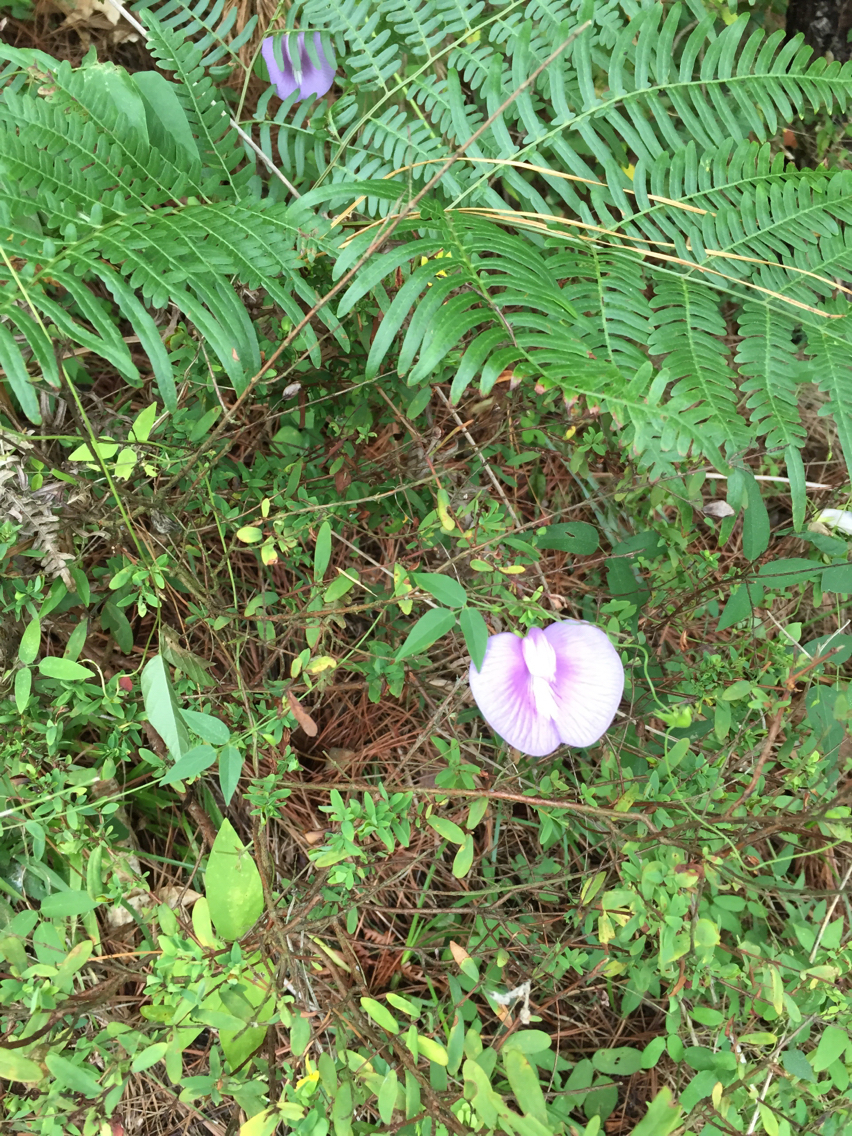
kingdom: Plantae
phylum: Tracheophyta
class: Magnoliopsida
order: Fabales
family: Fabaceae
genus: Centrosema
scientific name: Centrosema virginianum
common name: Butterfly-pea
